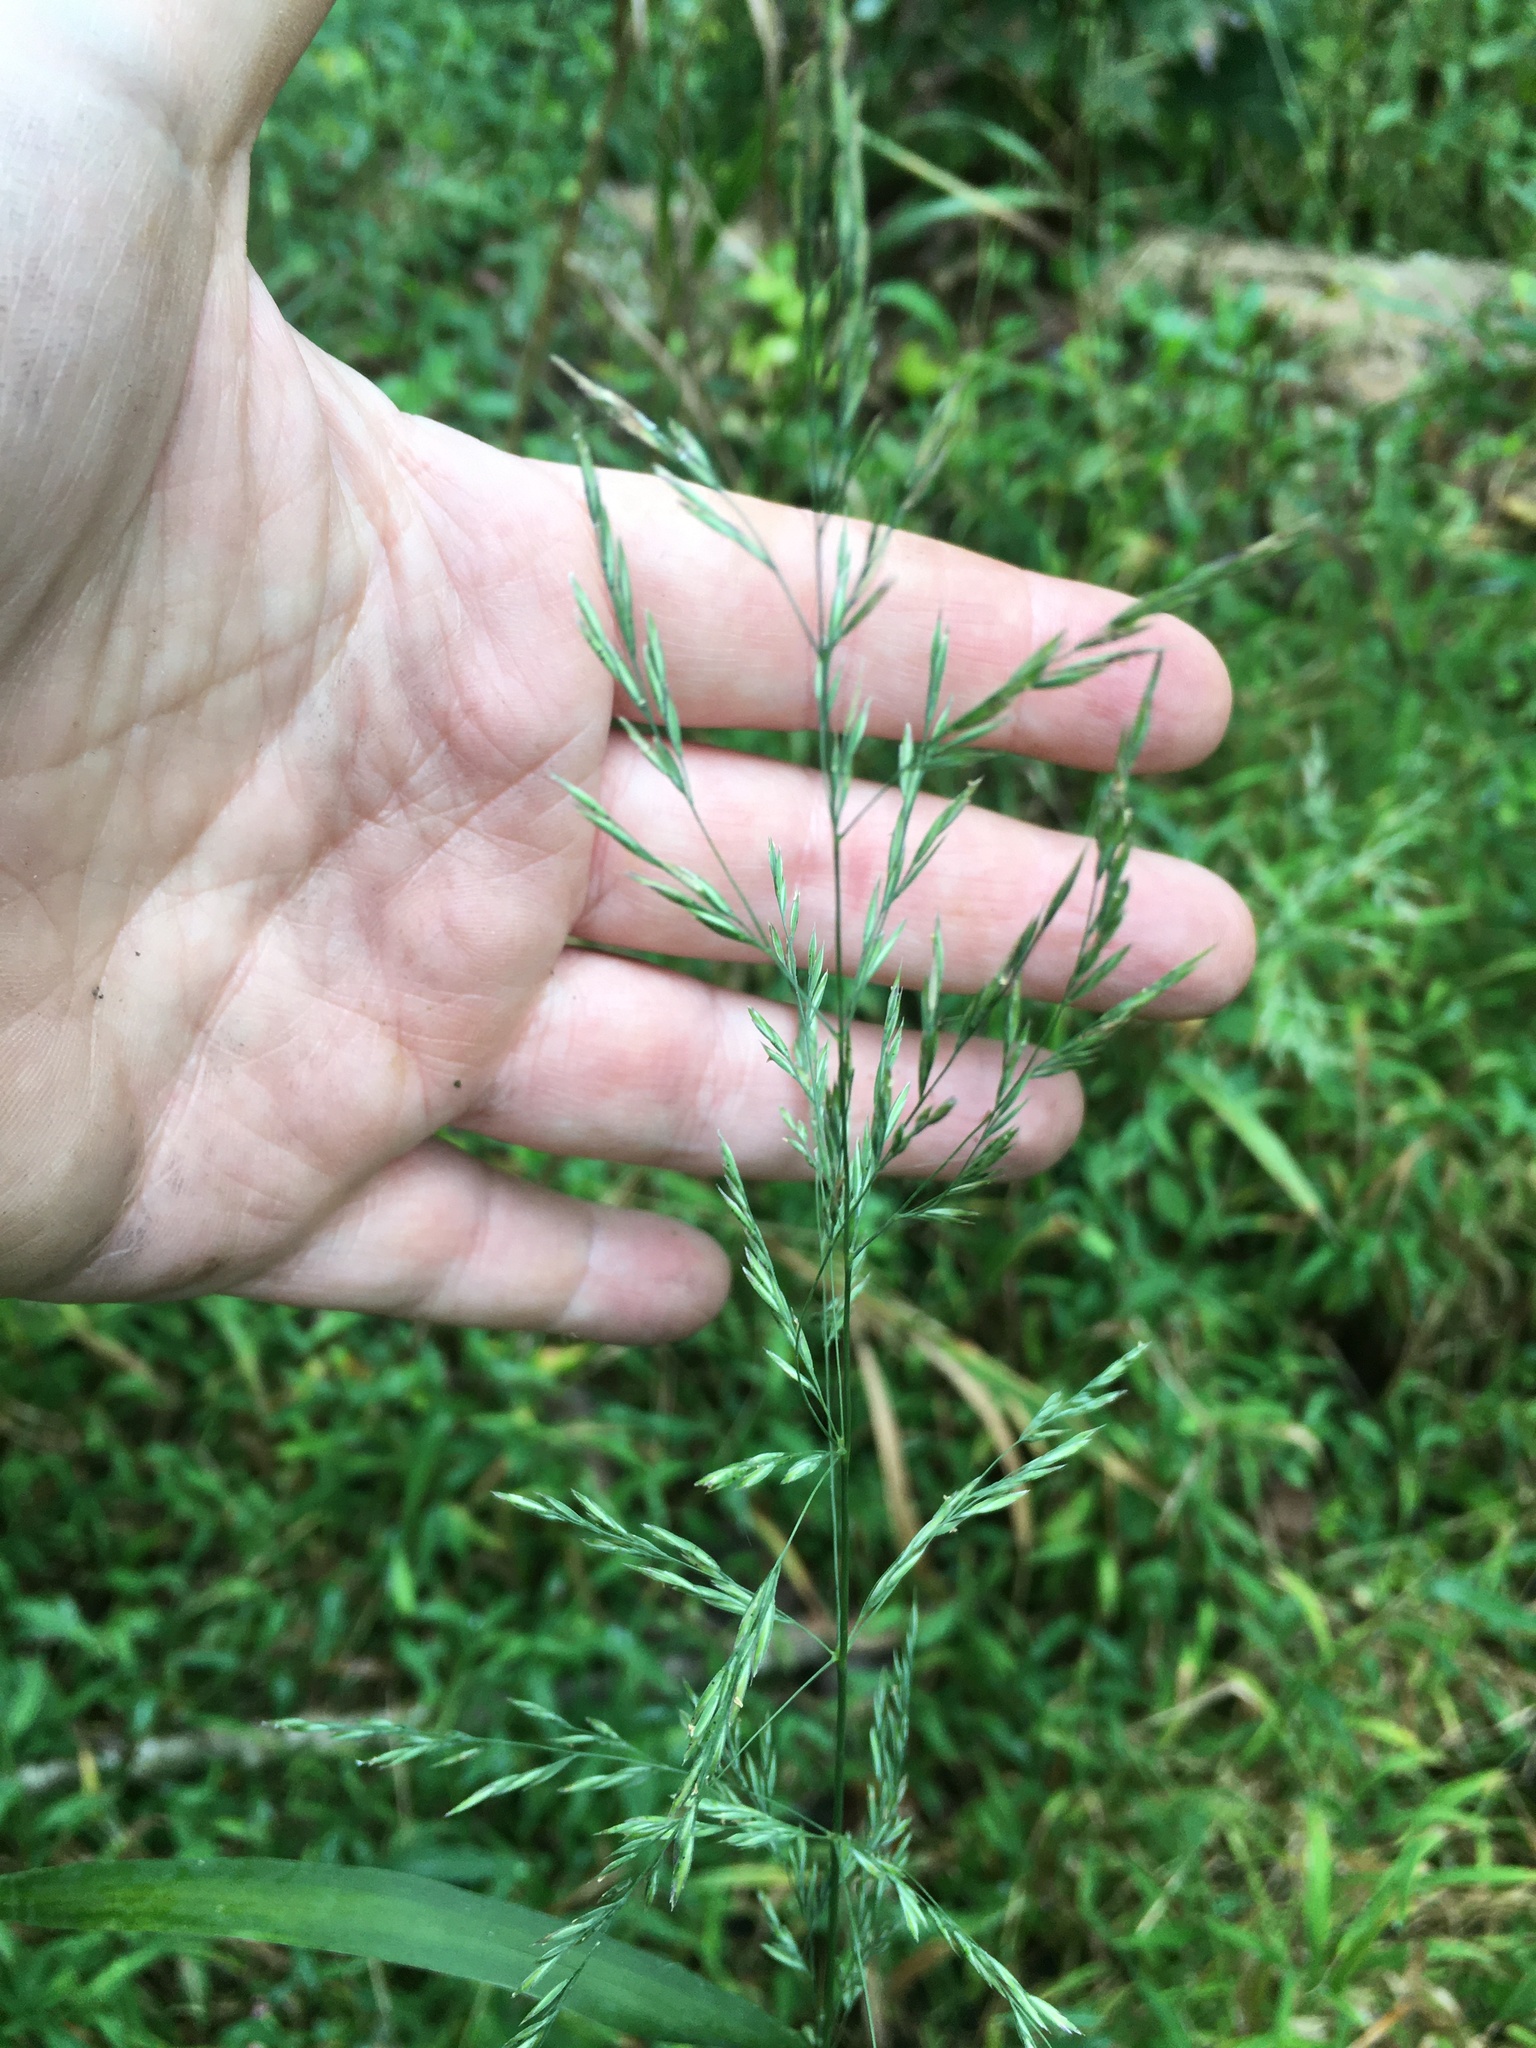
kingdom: Plantae
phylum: Tracheophyta
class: Liliopsida
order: Poales
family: Poaceae
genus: Cinna
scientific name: Cinna arundinacea
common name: Stout woodreed
